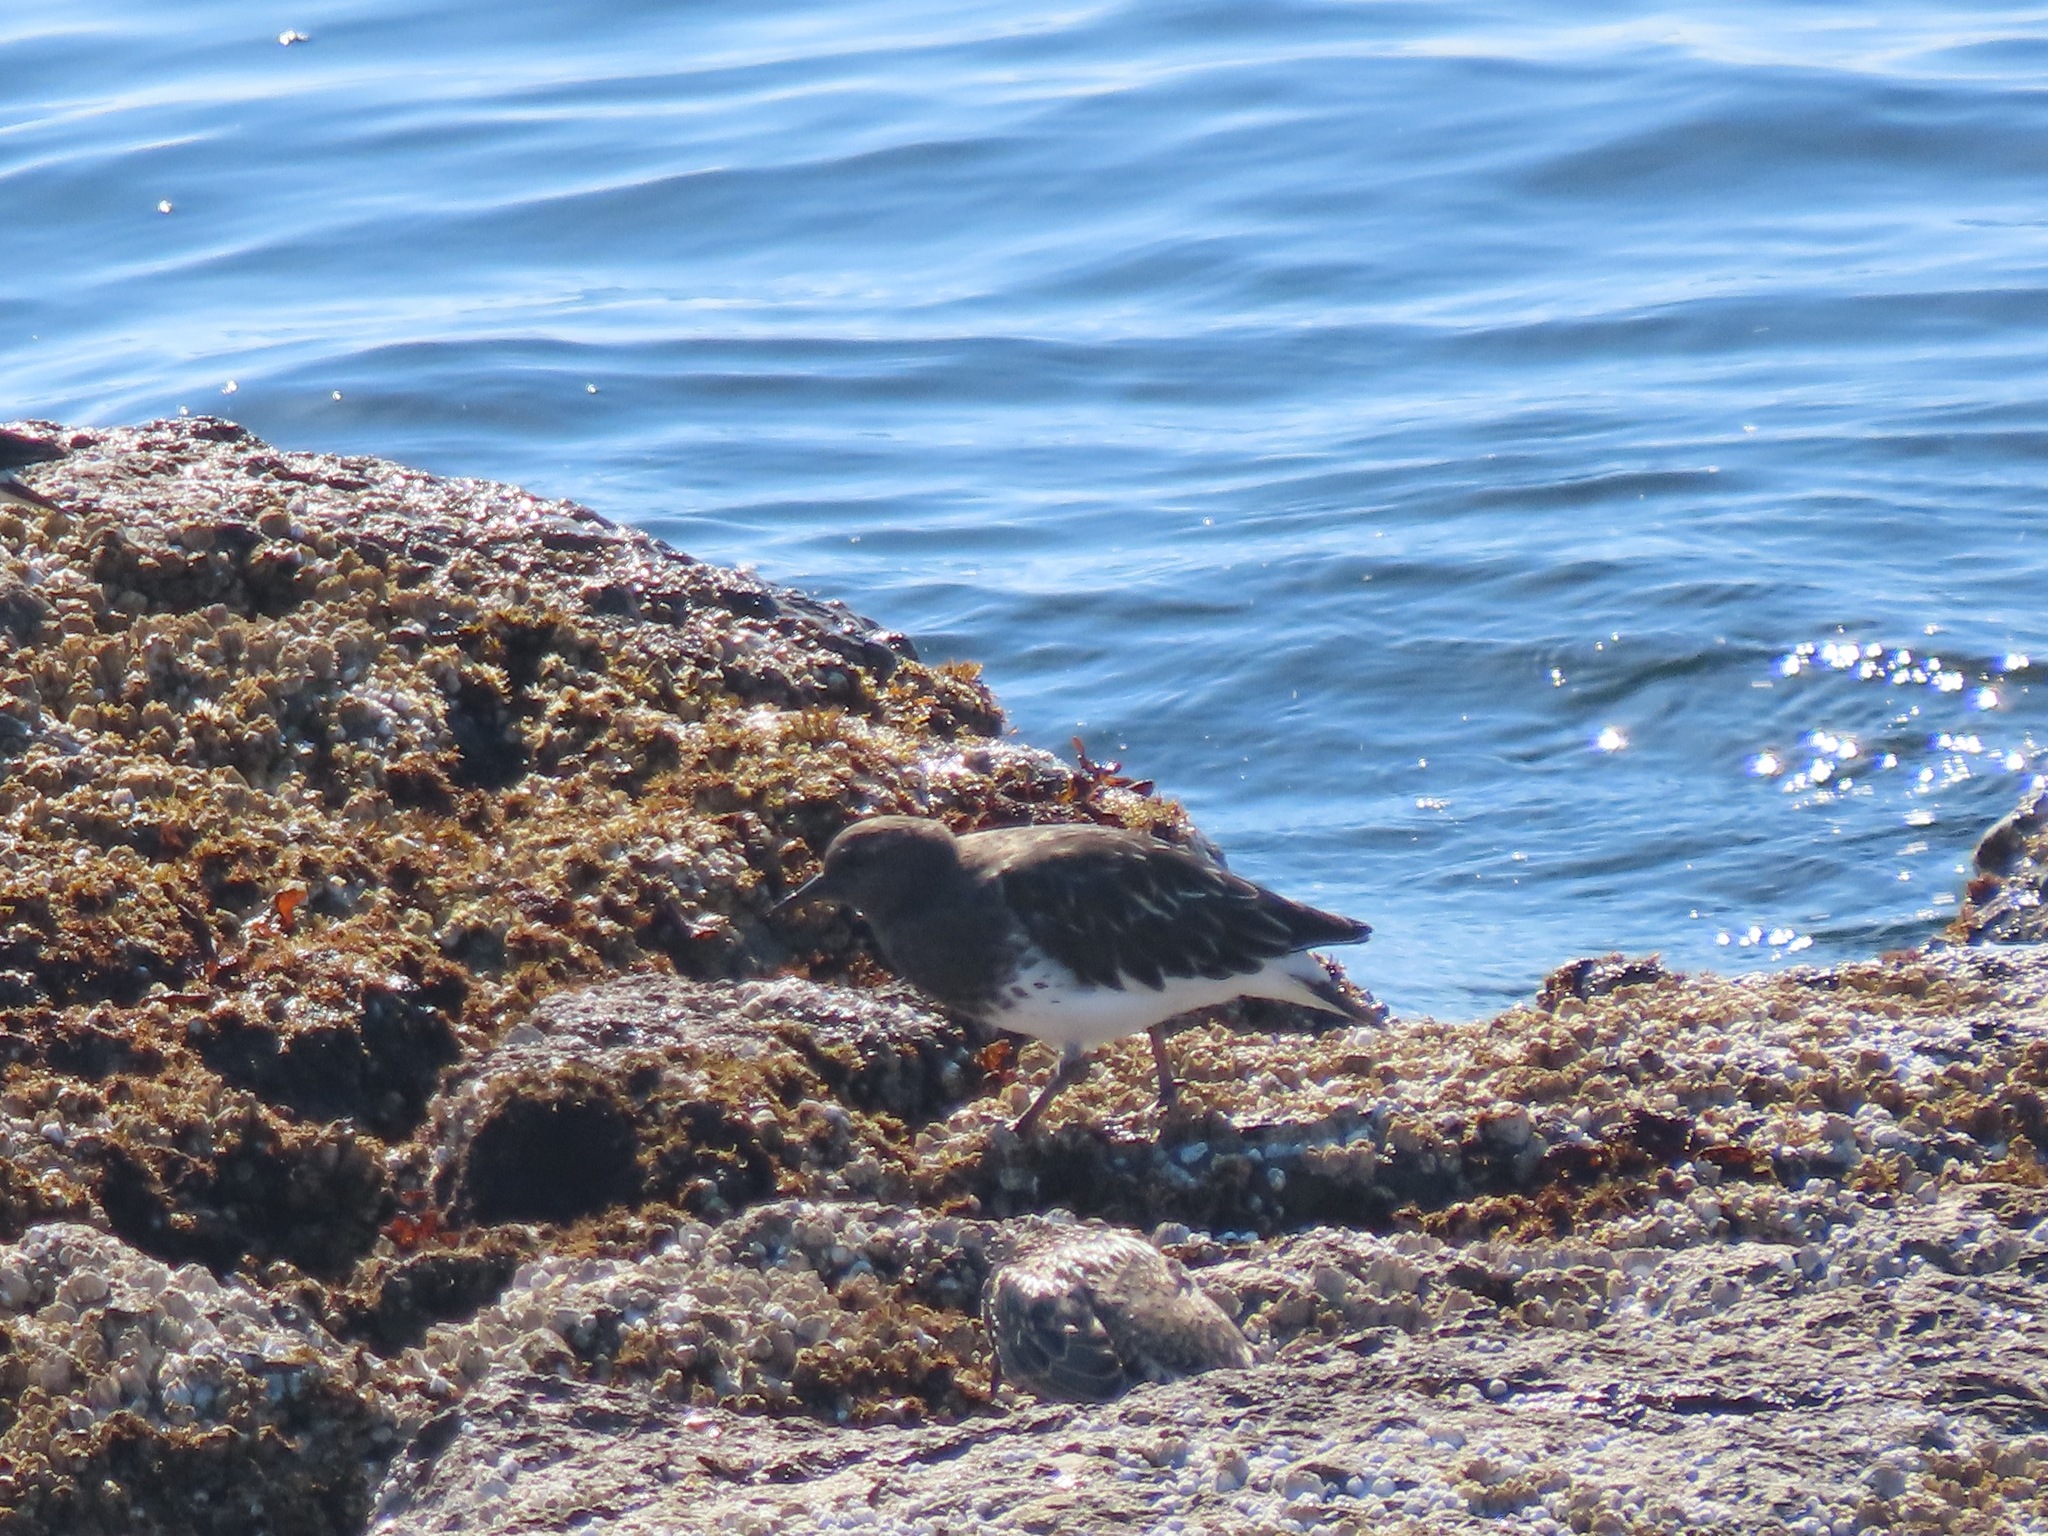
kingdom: Animalia
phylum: Chordata
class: Aves
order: Charadriiformes
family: Scolopacidae
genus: Arenaria
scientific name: Arenaria melanocephala
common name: Black turnstone
